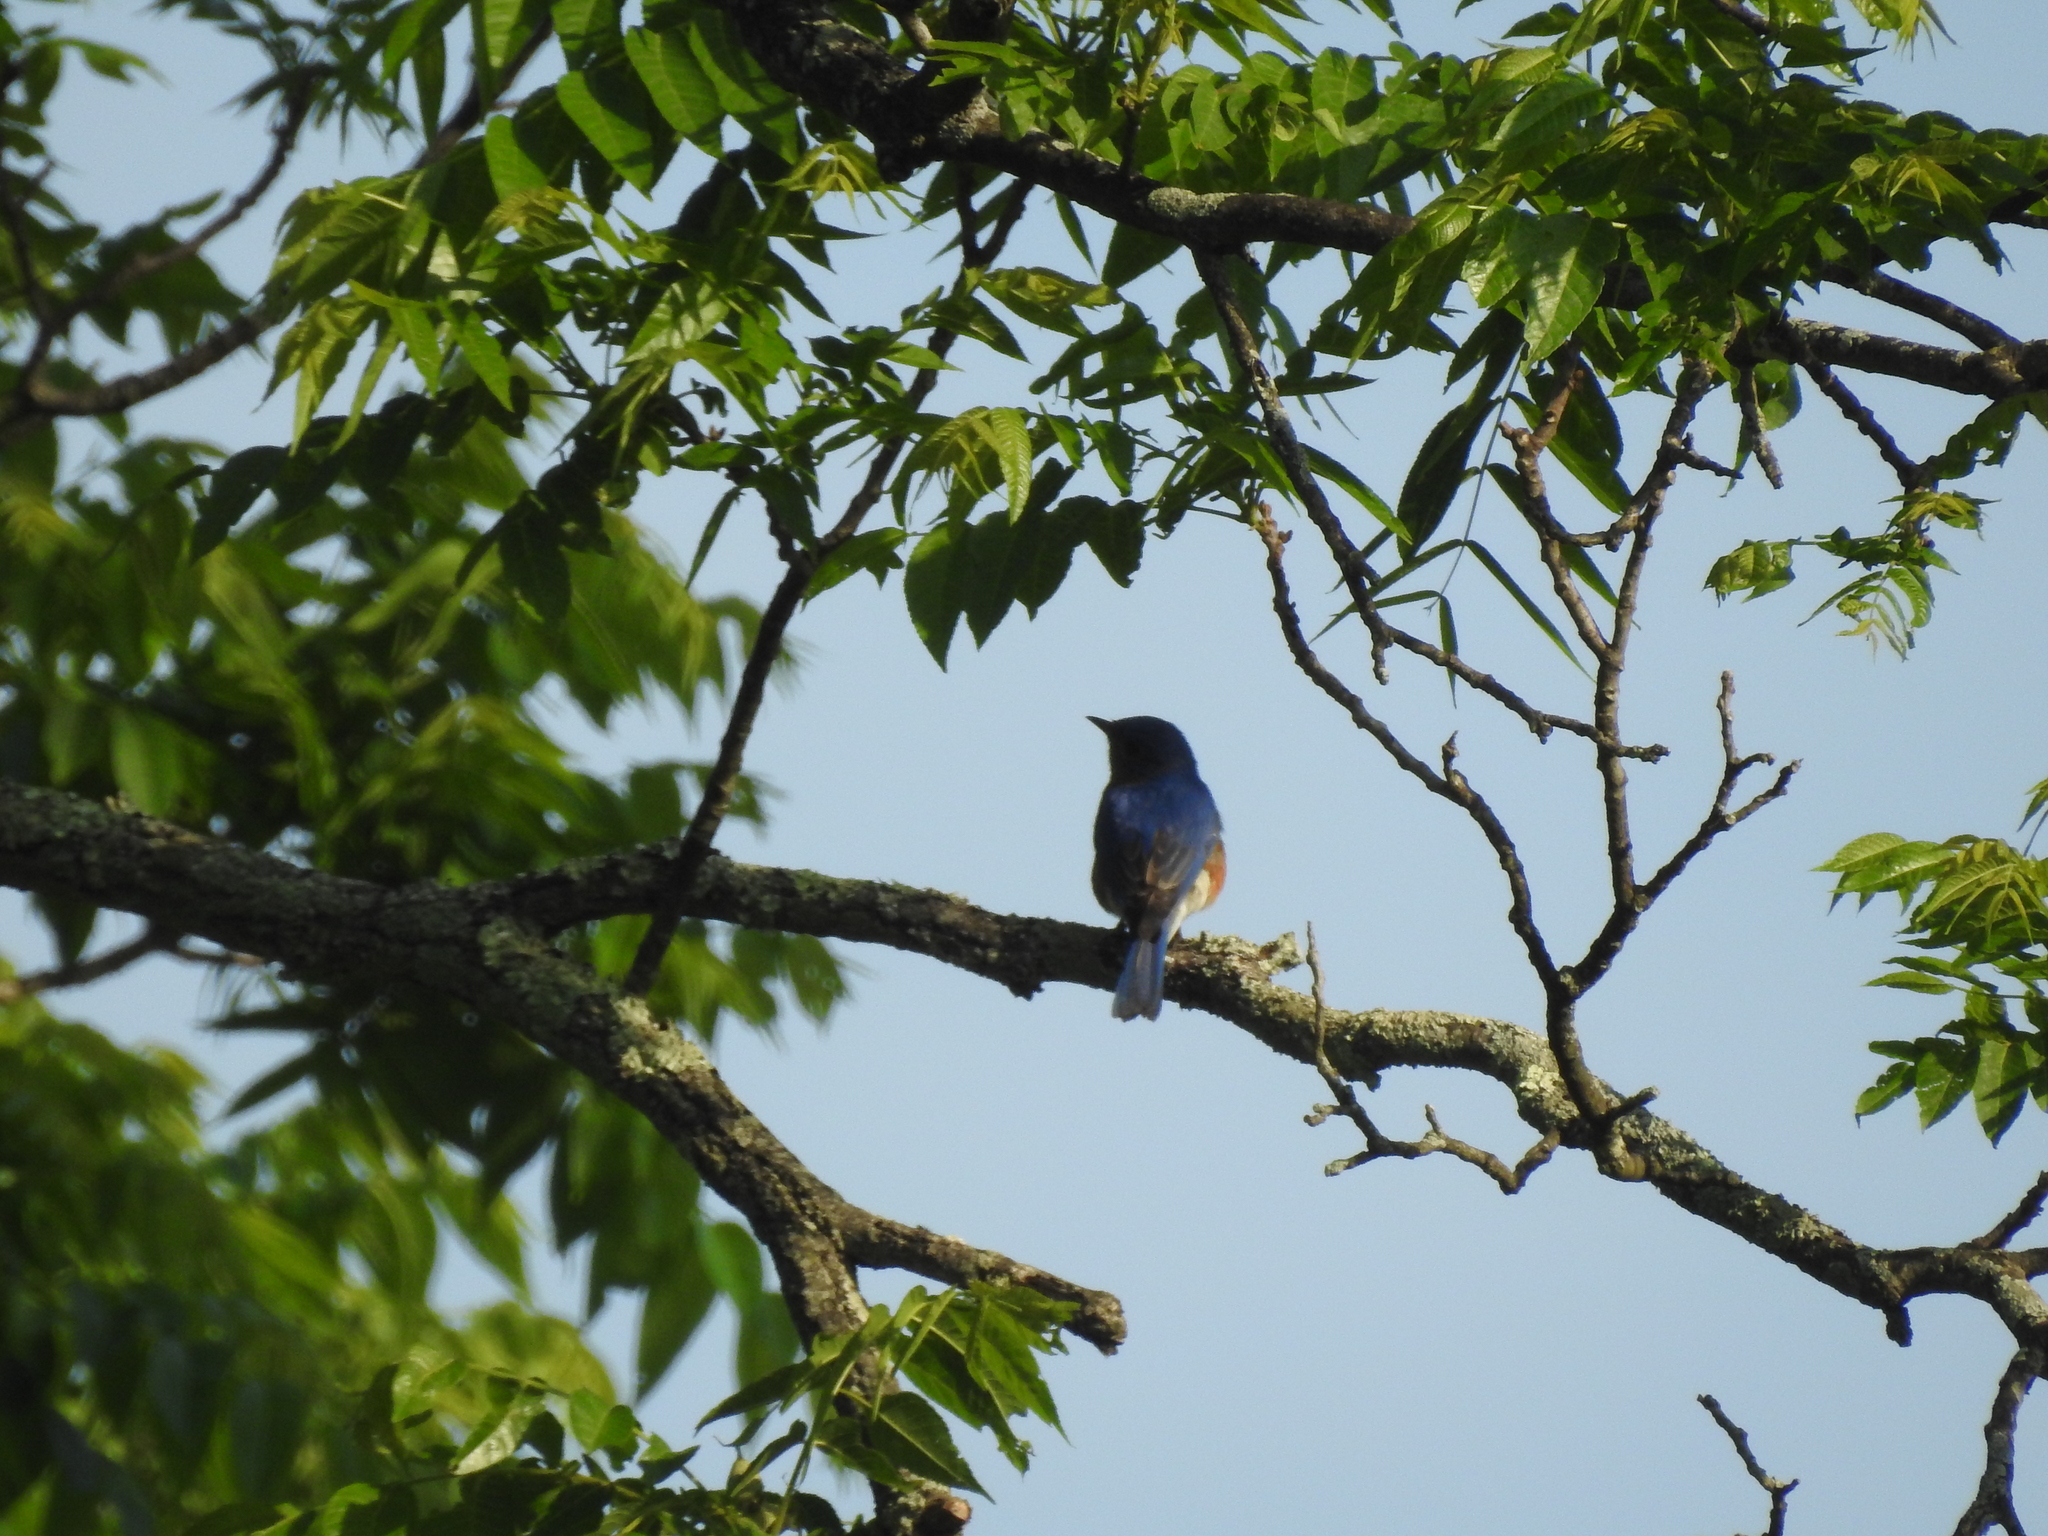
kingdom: Animalia
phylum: Chordata
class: Aves
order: Passeriformes
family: Turdidae
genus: Sialia
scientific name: Sialia sialis
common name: Eastern bluebird
